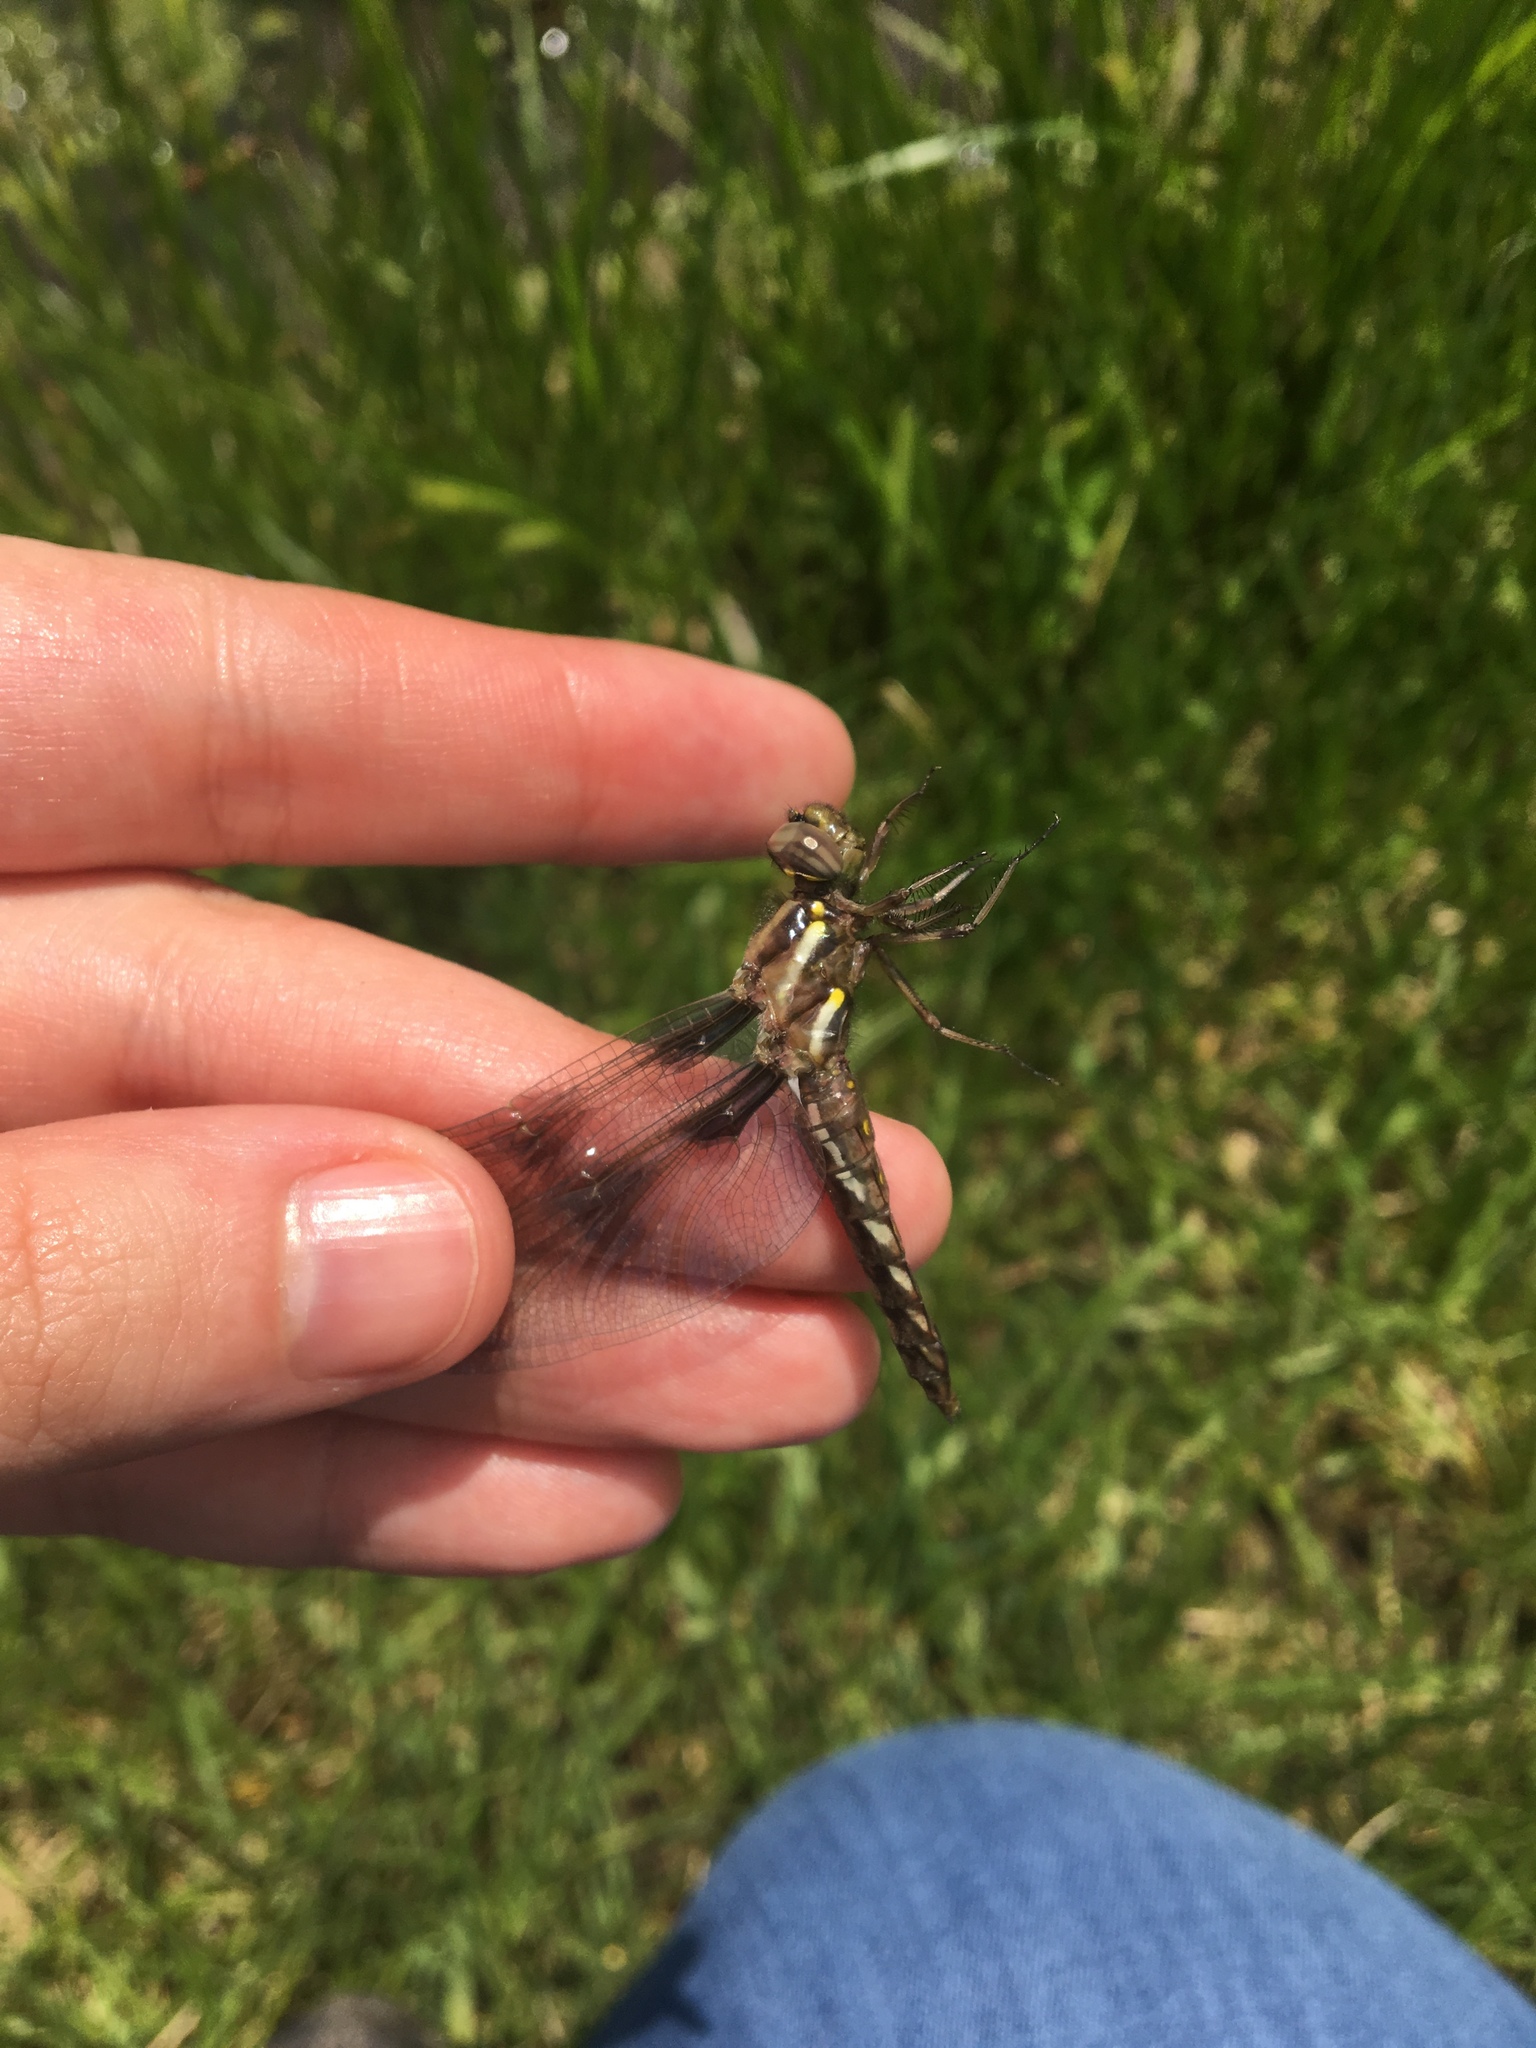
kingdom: Animalia
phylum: Arthropoda
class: Insecta
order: Odonata
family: Libellulidae
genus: Plathemis
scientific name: Plathemis lydia
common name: Common whitetail
